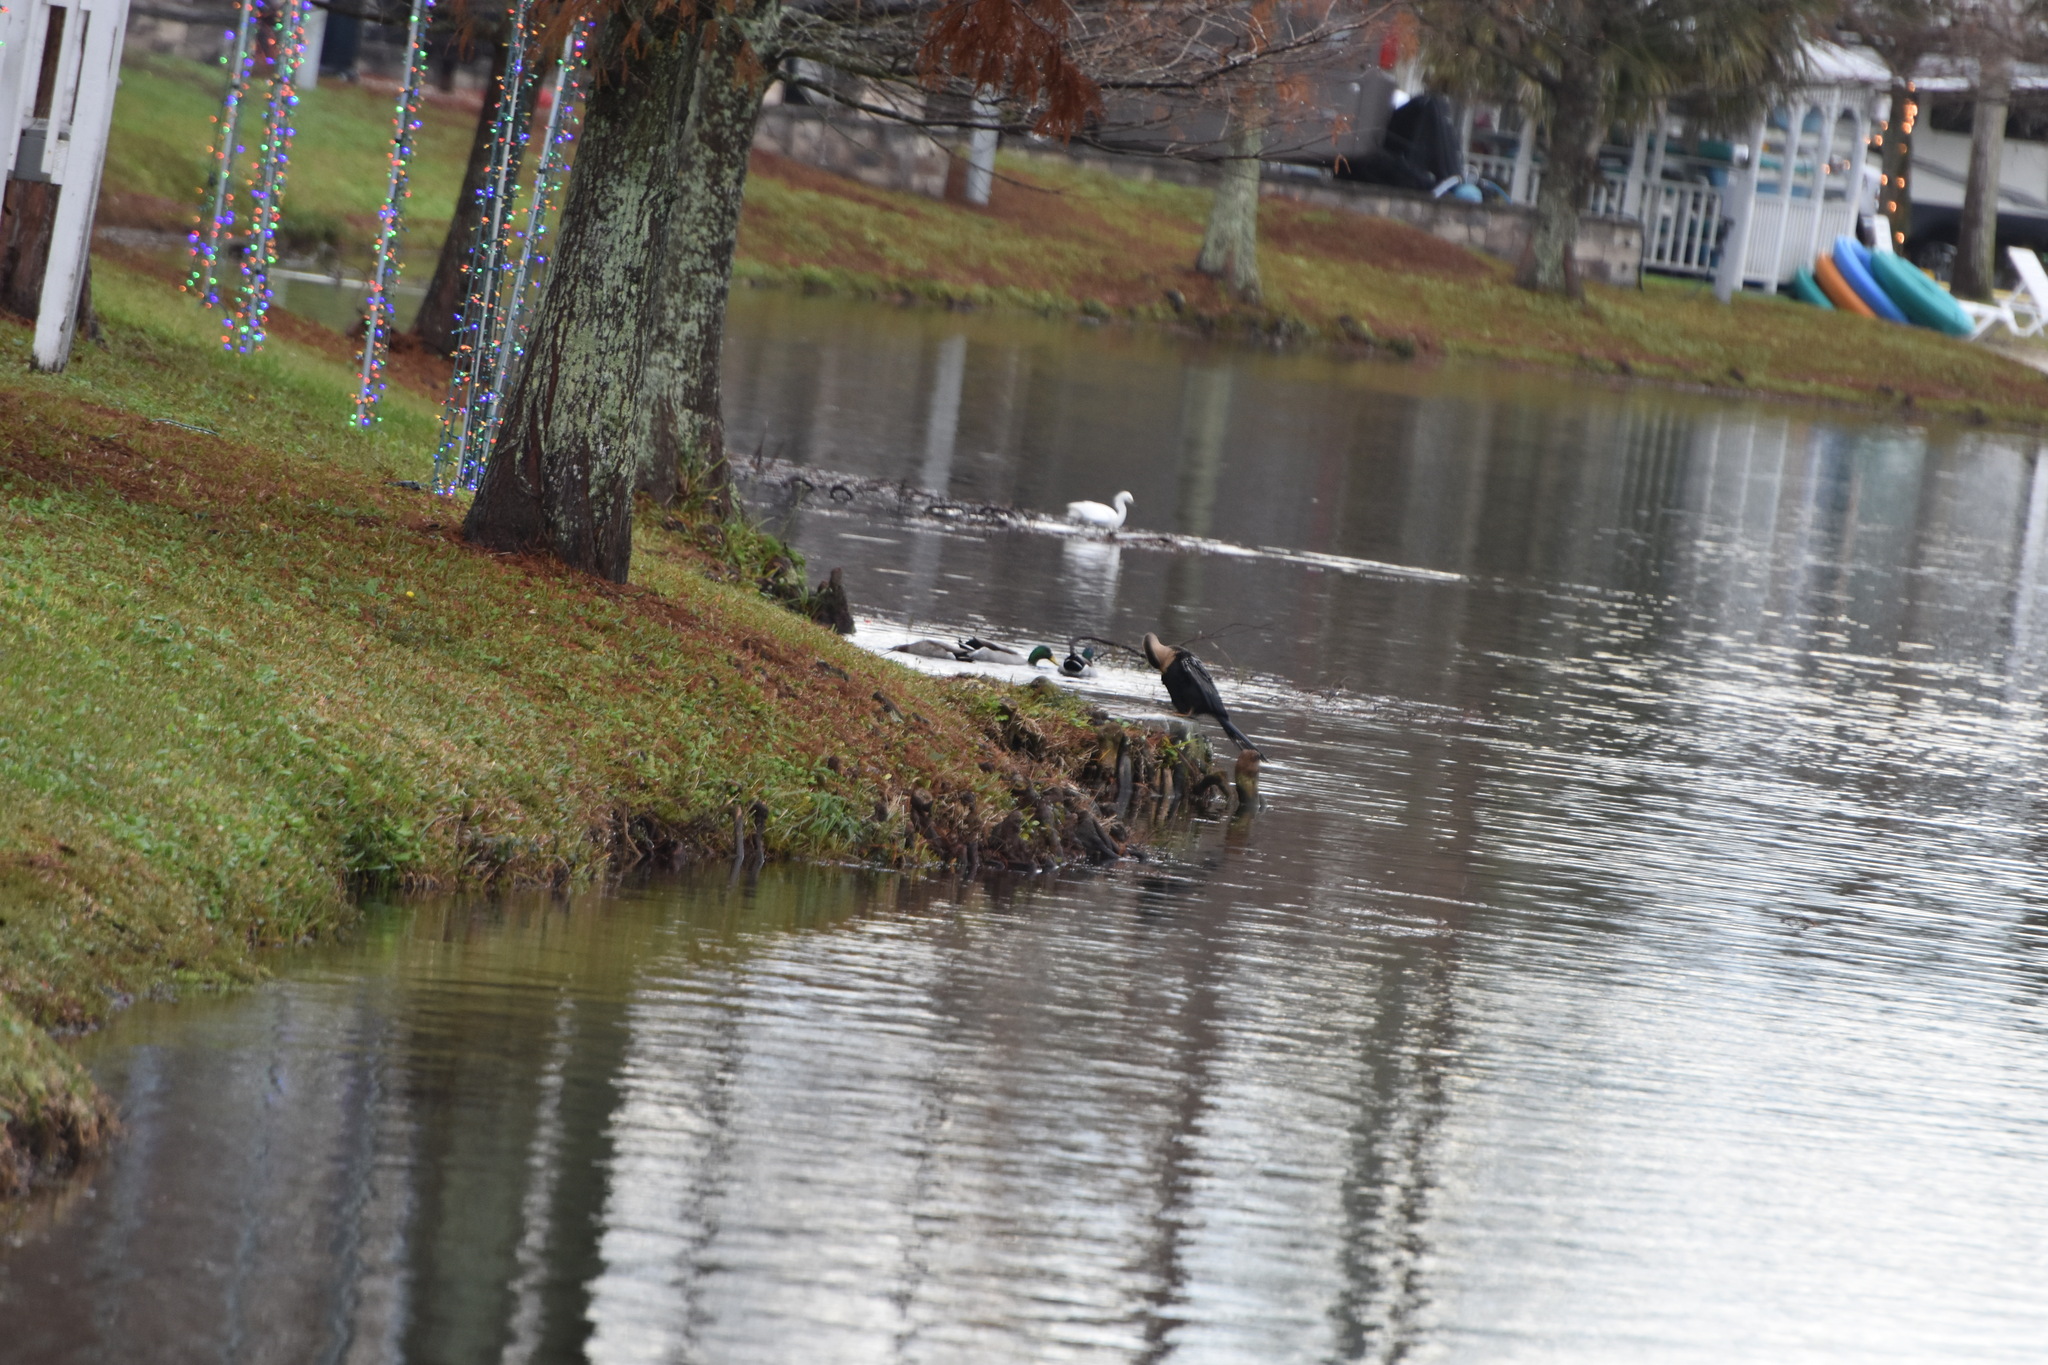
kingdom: Animalia
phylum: Chordata
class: Aves
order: Anseriformes
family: Anatidae
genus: Anas
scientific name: Anas platyrhynchos
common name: Mallard
